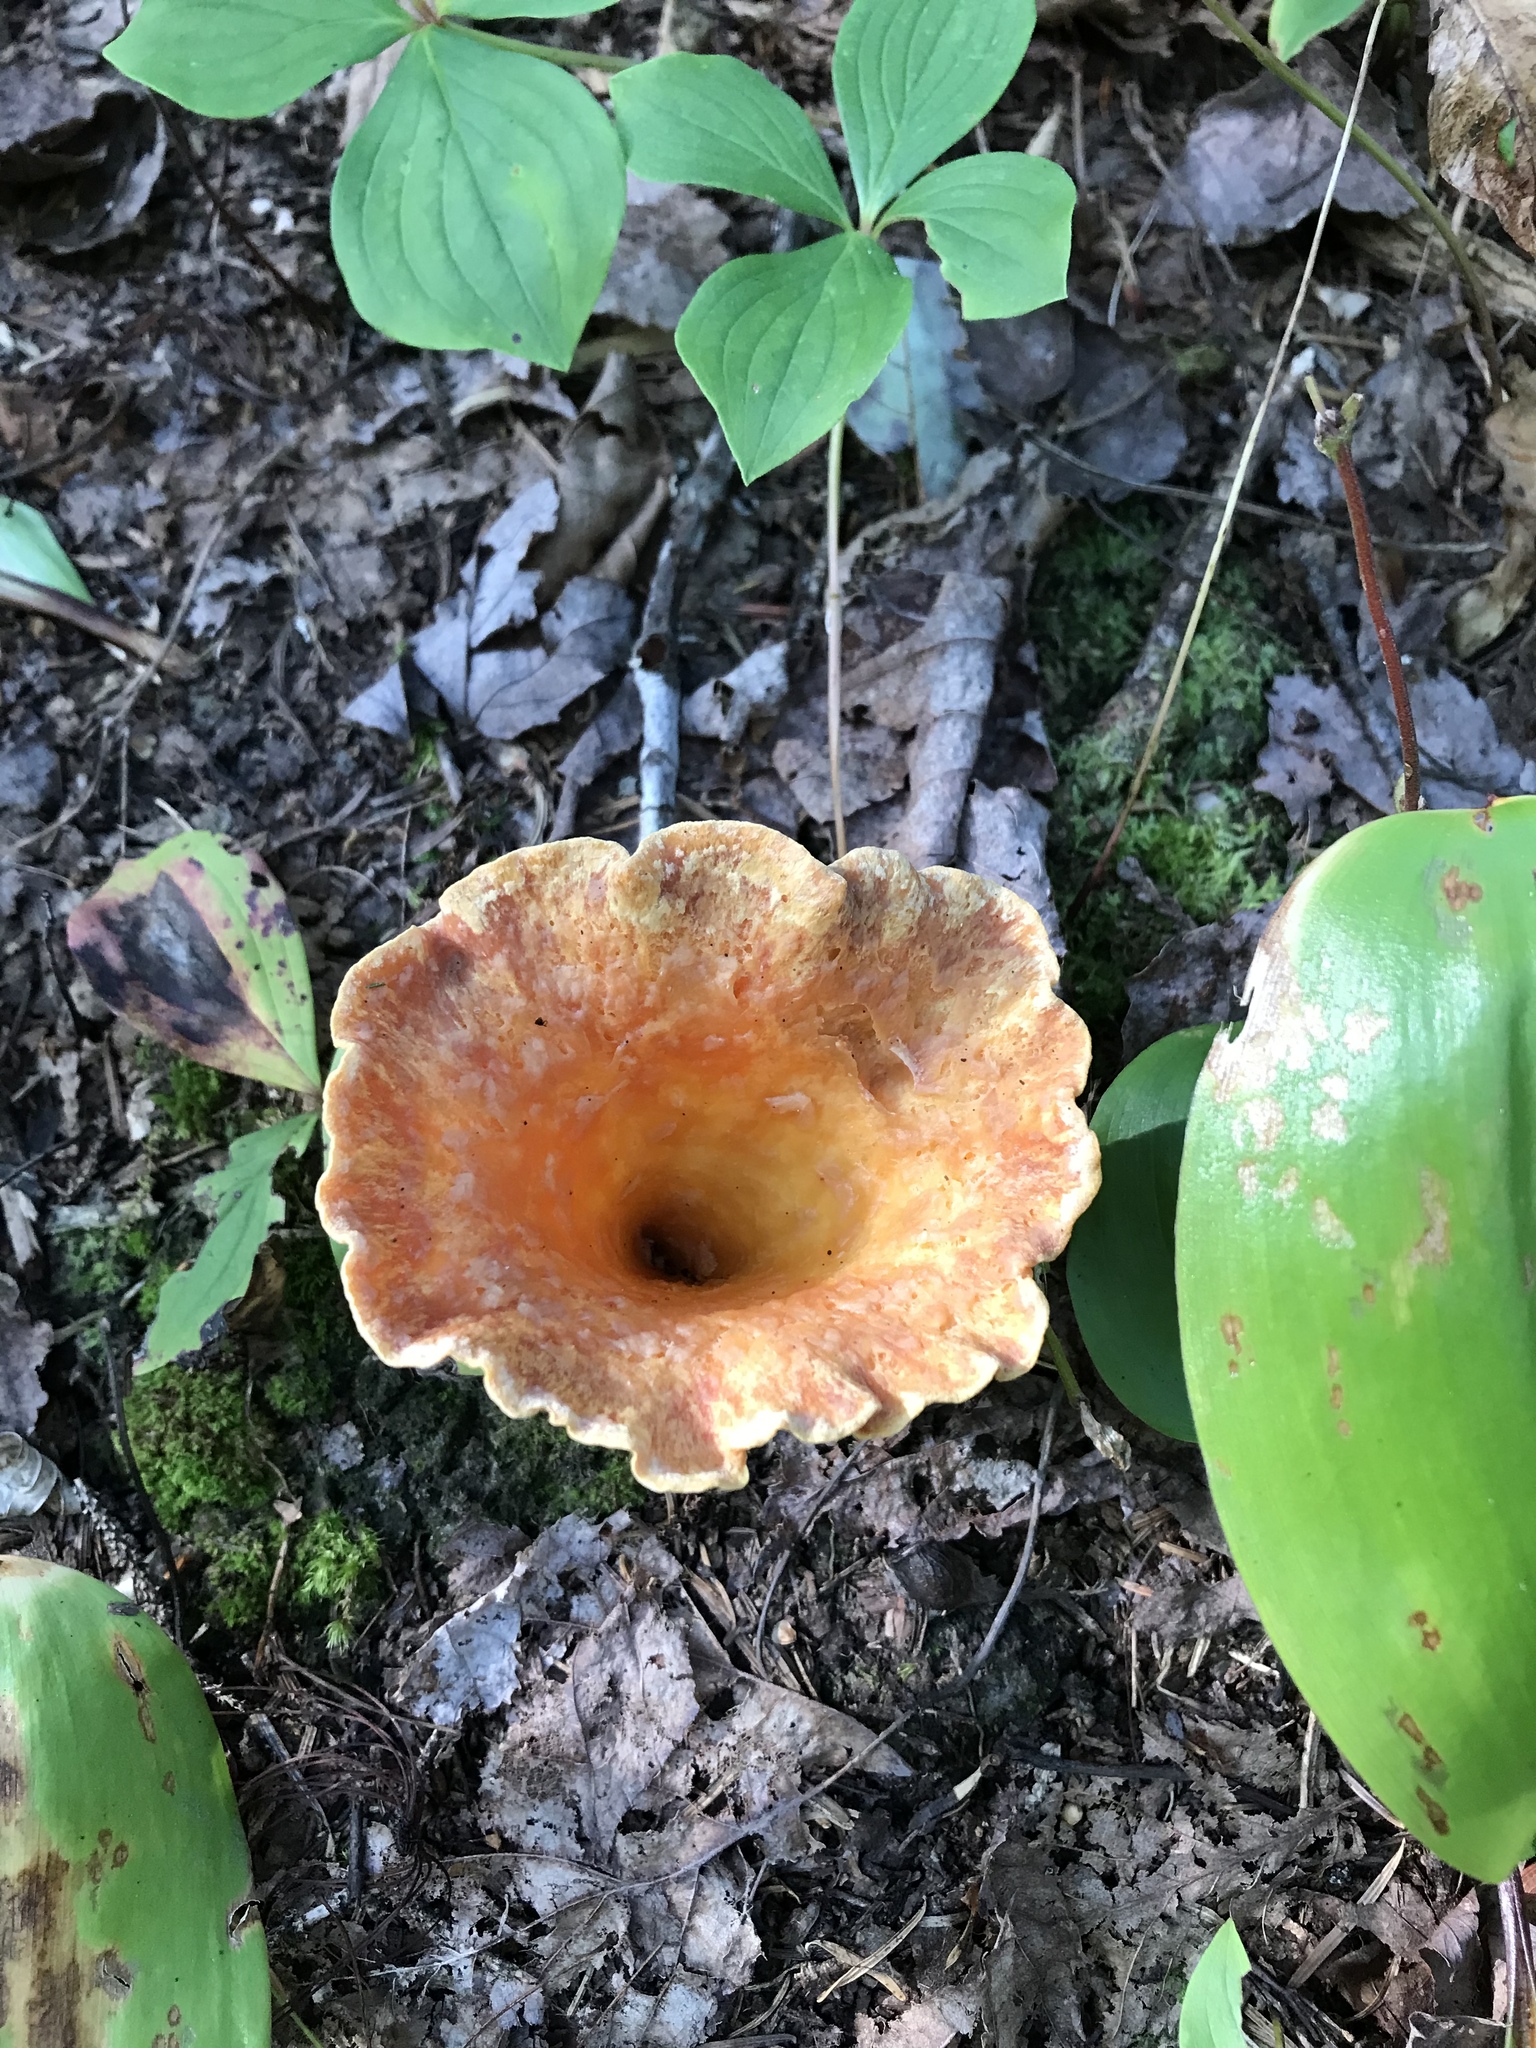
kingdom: Fungi
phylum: Basidiomycota
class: Agaricomycetes
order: Gomphales
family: Gomphaceae
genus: Turbinellus
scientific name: Turbinellus floccosus
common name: Scaly chanterelle
